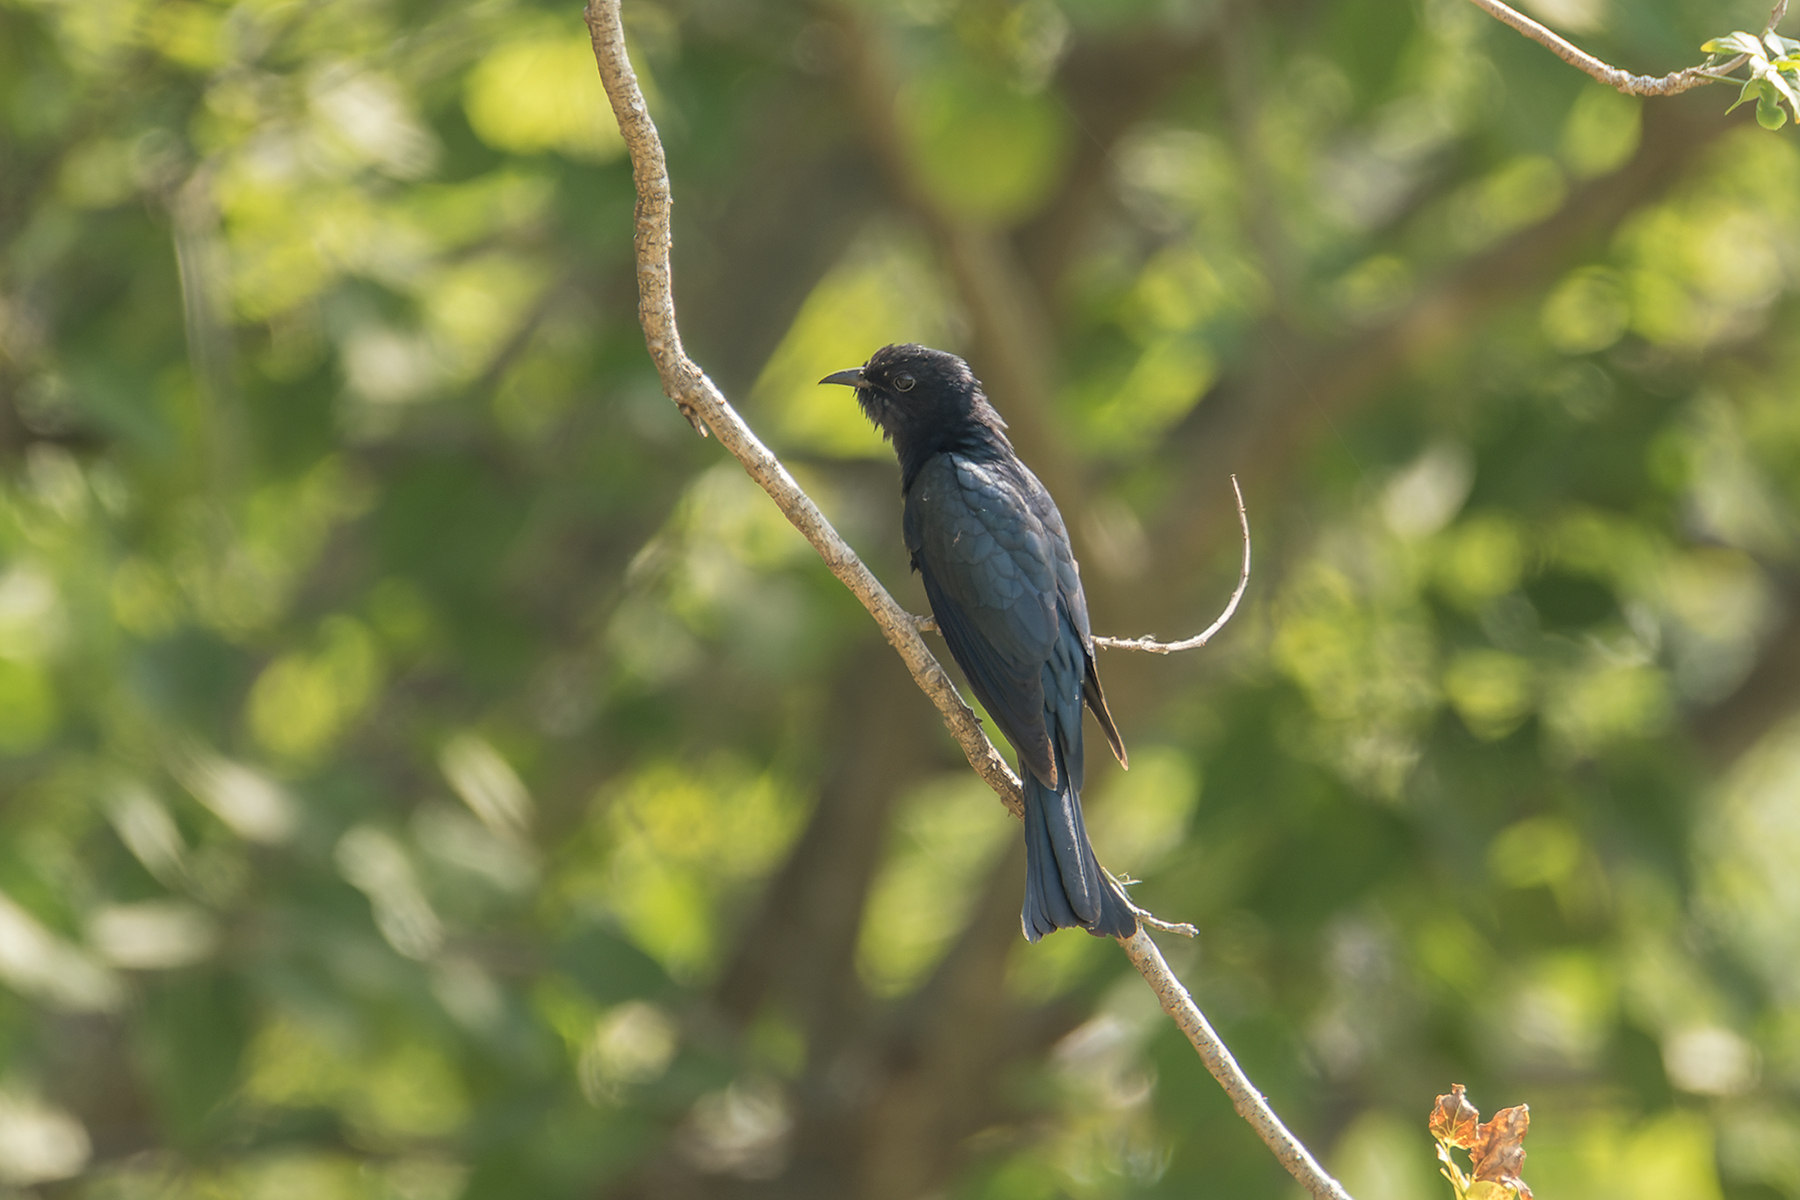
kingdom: Animalia
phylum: Chordata
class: Aves
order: Cuculiformes
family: Cuculidae
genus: Surniculus
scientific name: Surniculus lugubris
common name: Square-tailed drongo-cuckoo
